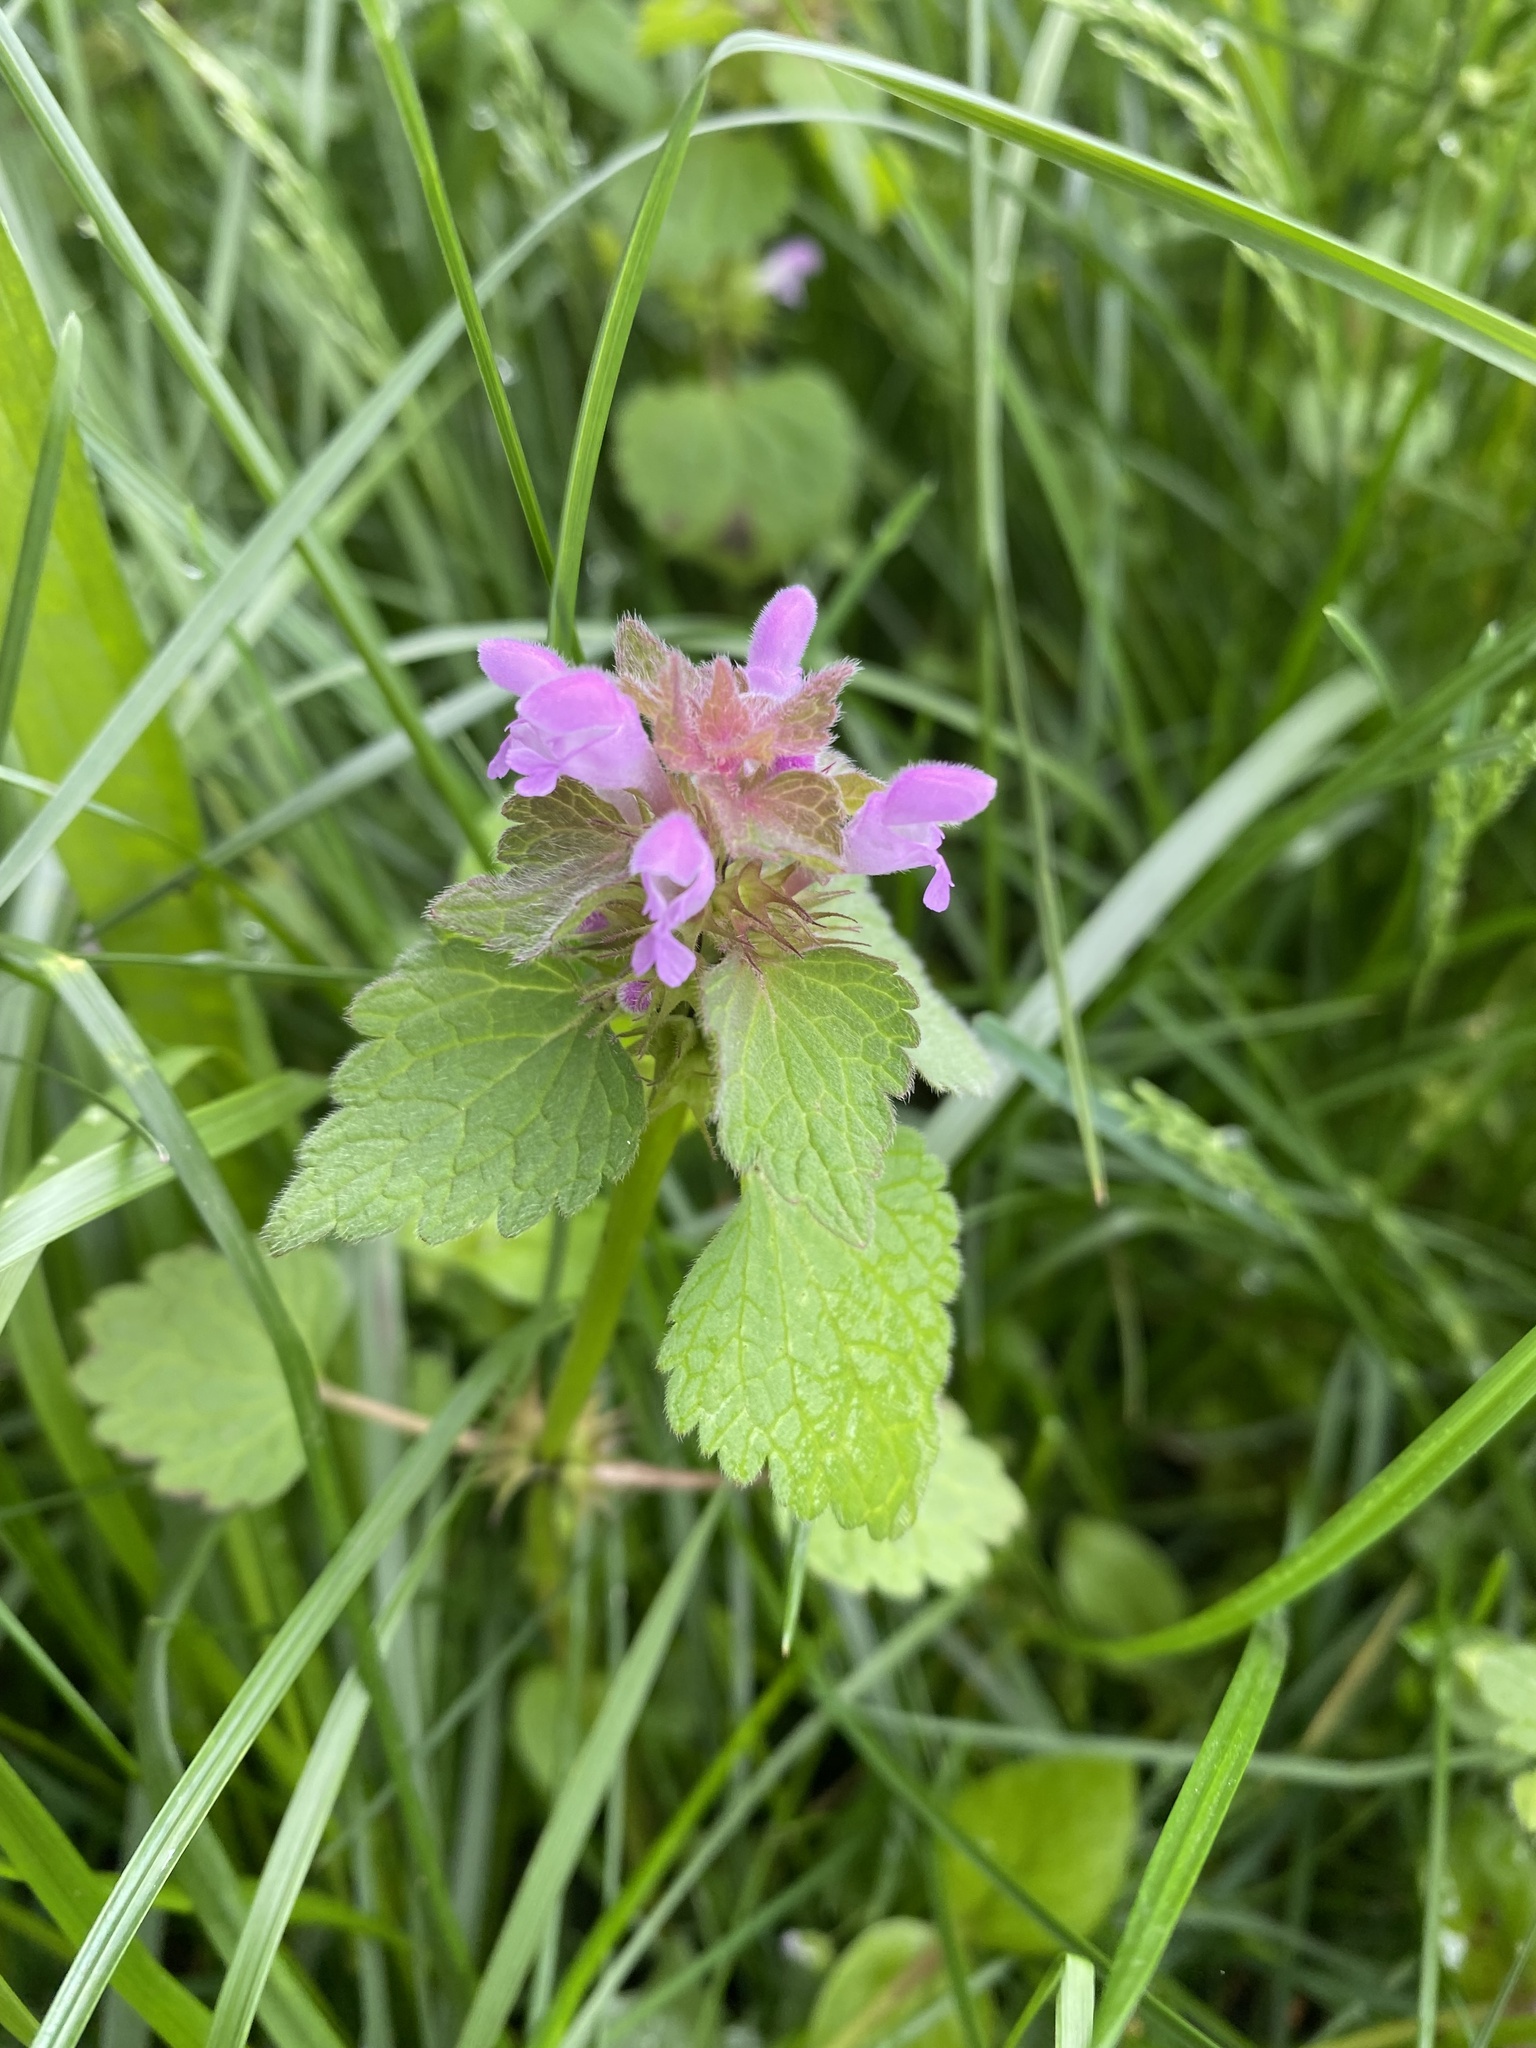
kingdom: Plantae
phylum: Tracheophyta
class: Magnoliopsida
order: Lamiales
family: Lamiaceae
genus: Lamium
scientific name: Lamium purpureum
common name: Red dead-nettle
